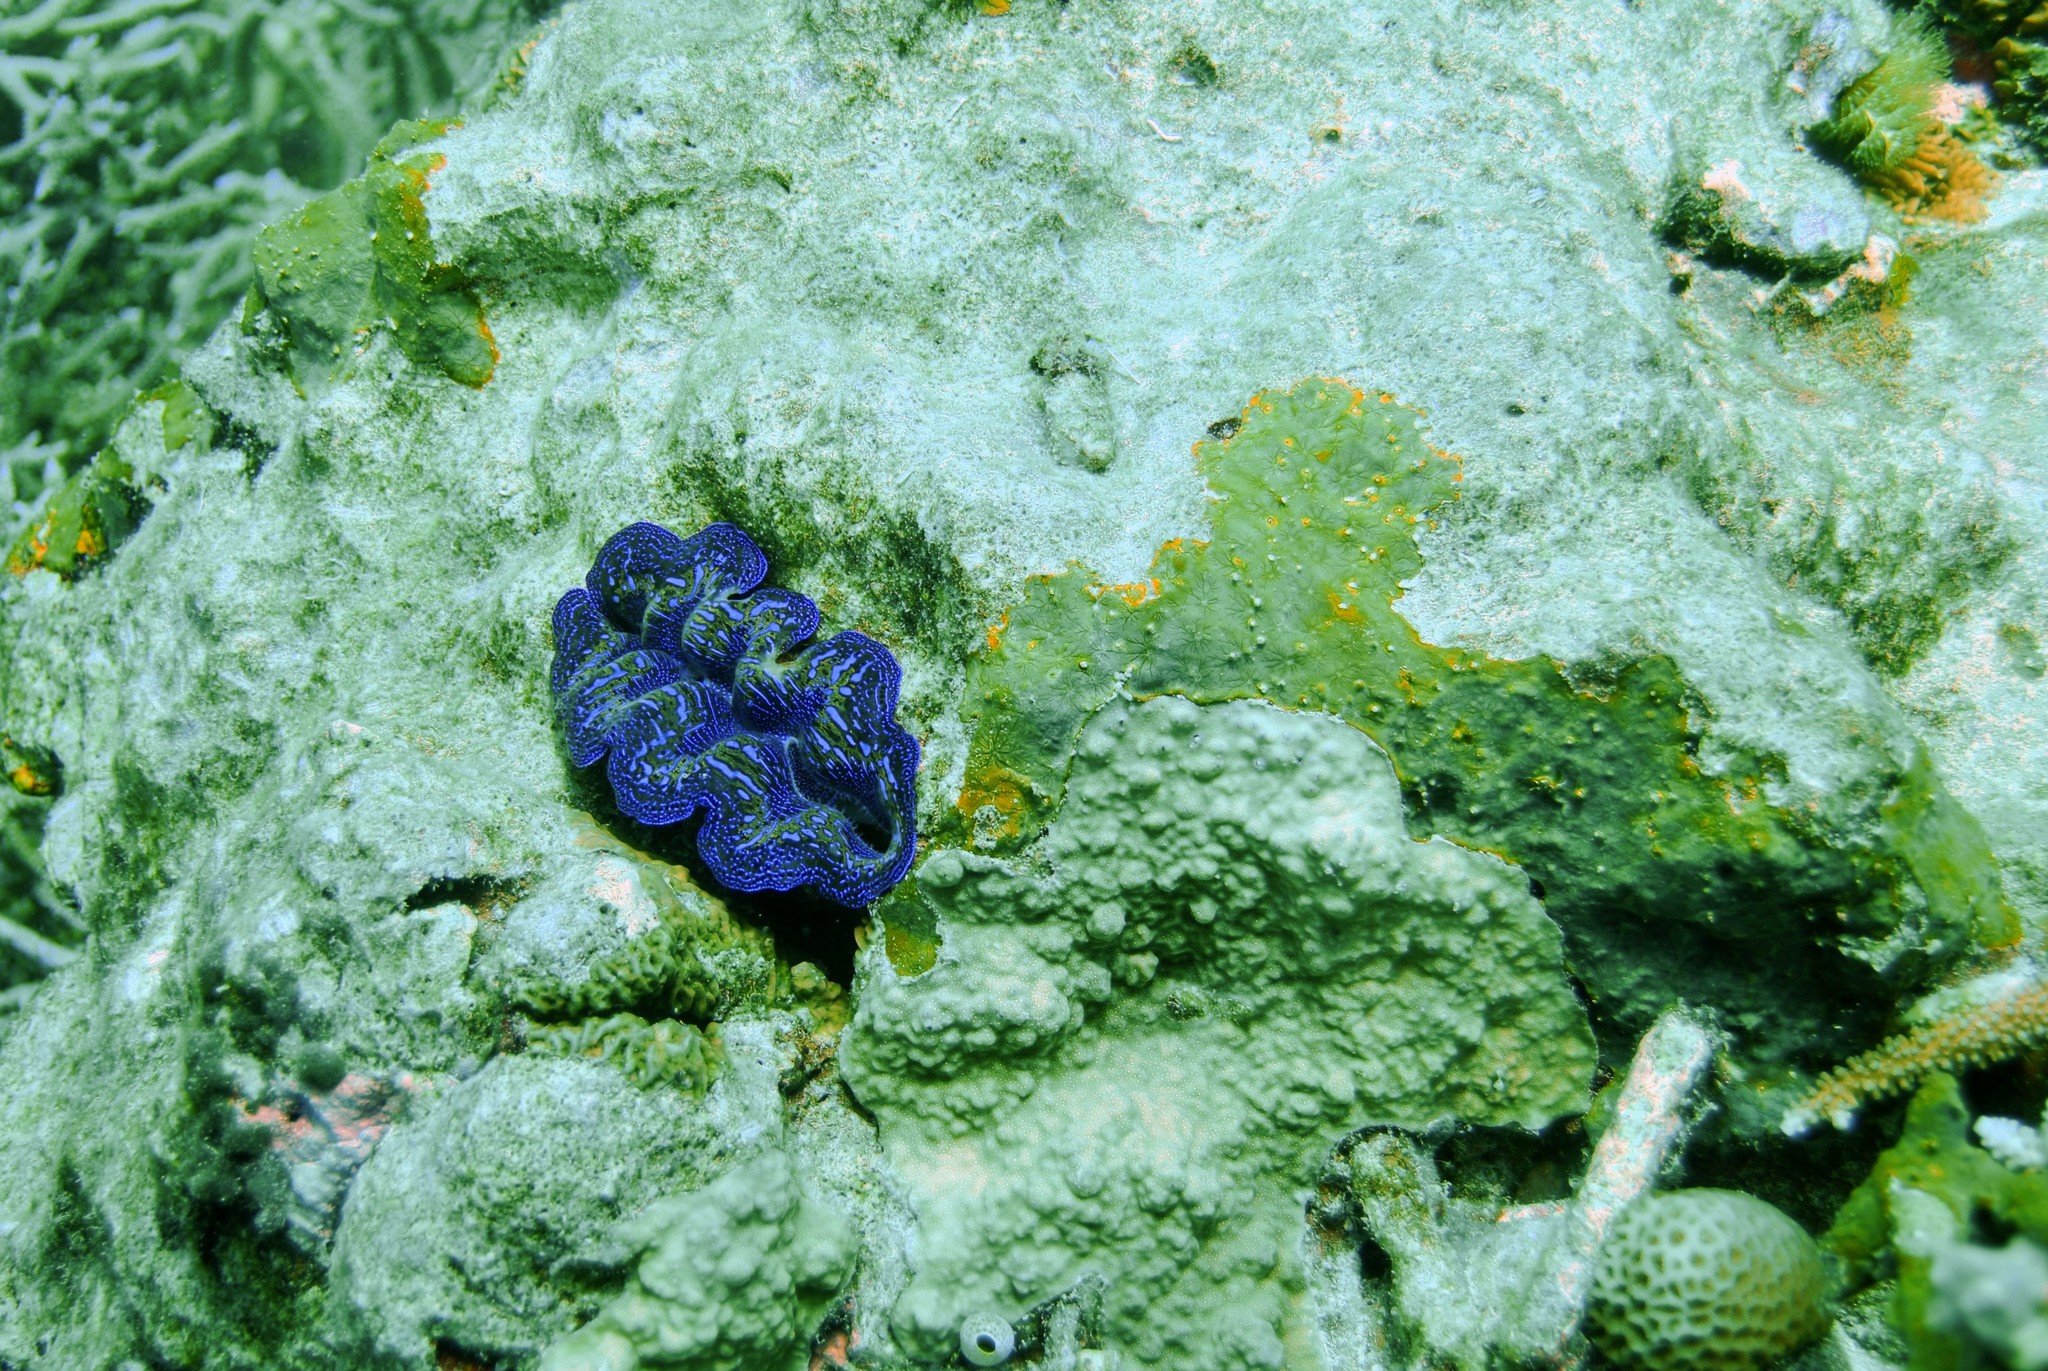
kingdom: Animalia
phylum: Mollusca
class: Bivalvia
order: Cardiida
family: Cardiidae
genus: Tridacna
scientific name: Tridacna crocea
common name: Boring clam
